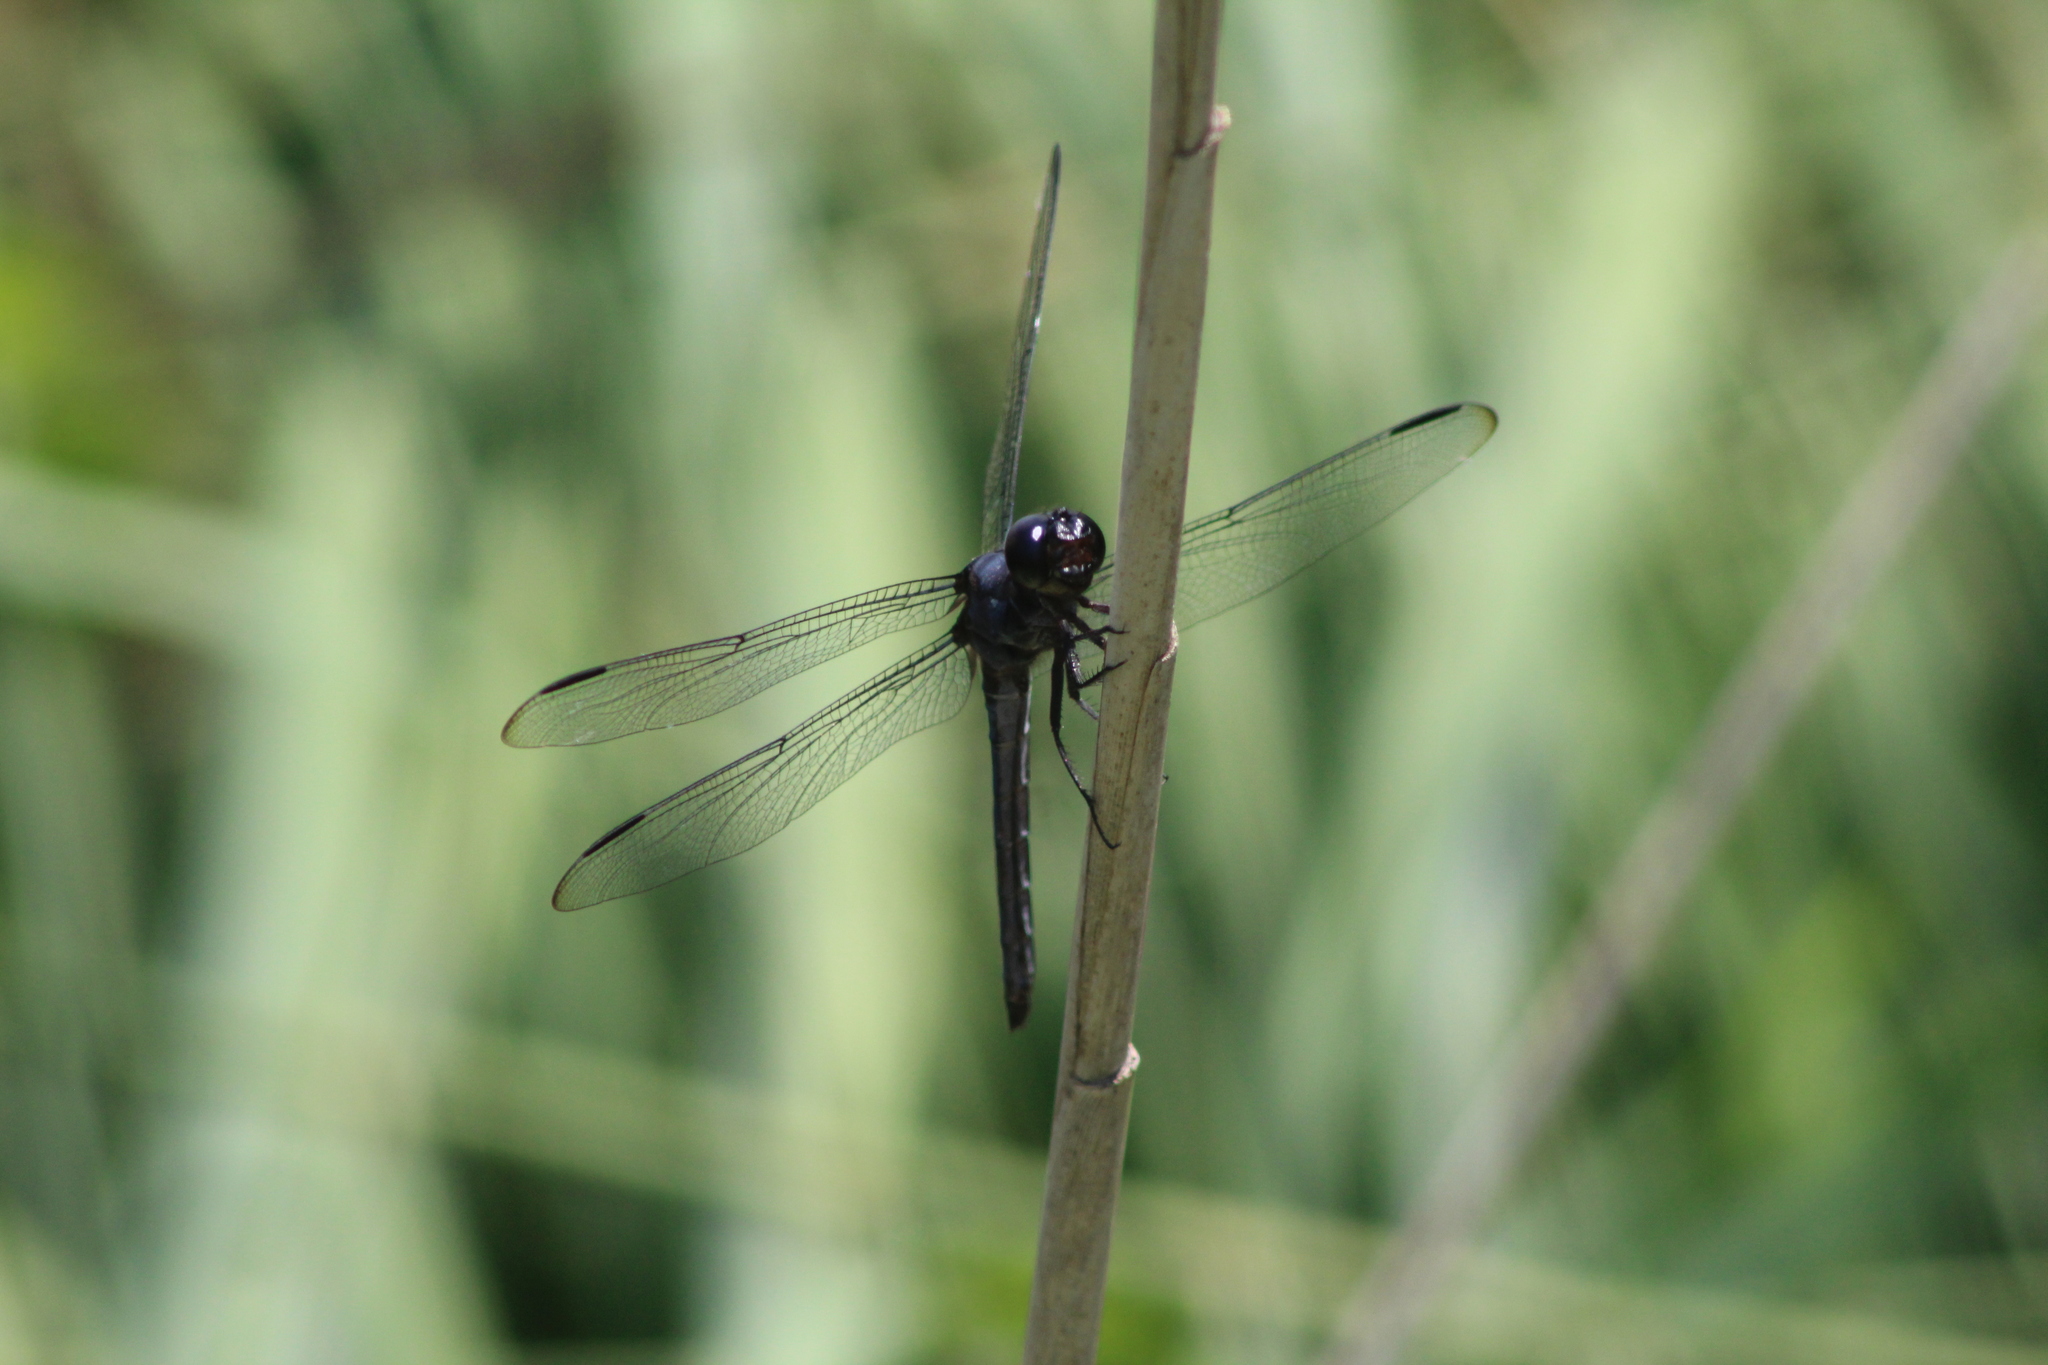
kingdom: Animalia
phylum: Arthropoda
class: Insecta
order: Odonata
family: Libellulidae
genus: Libellula
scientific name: Libellula incesta
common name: Slaty skimmer
